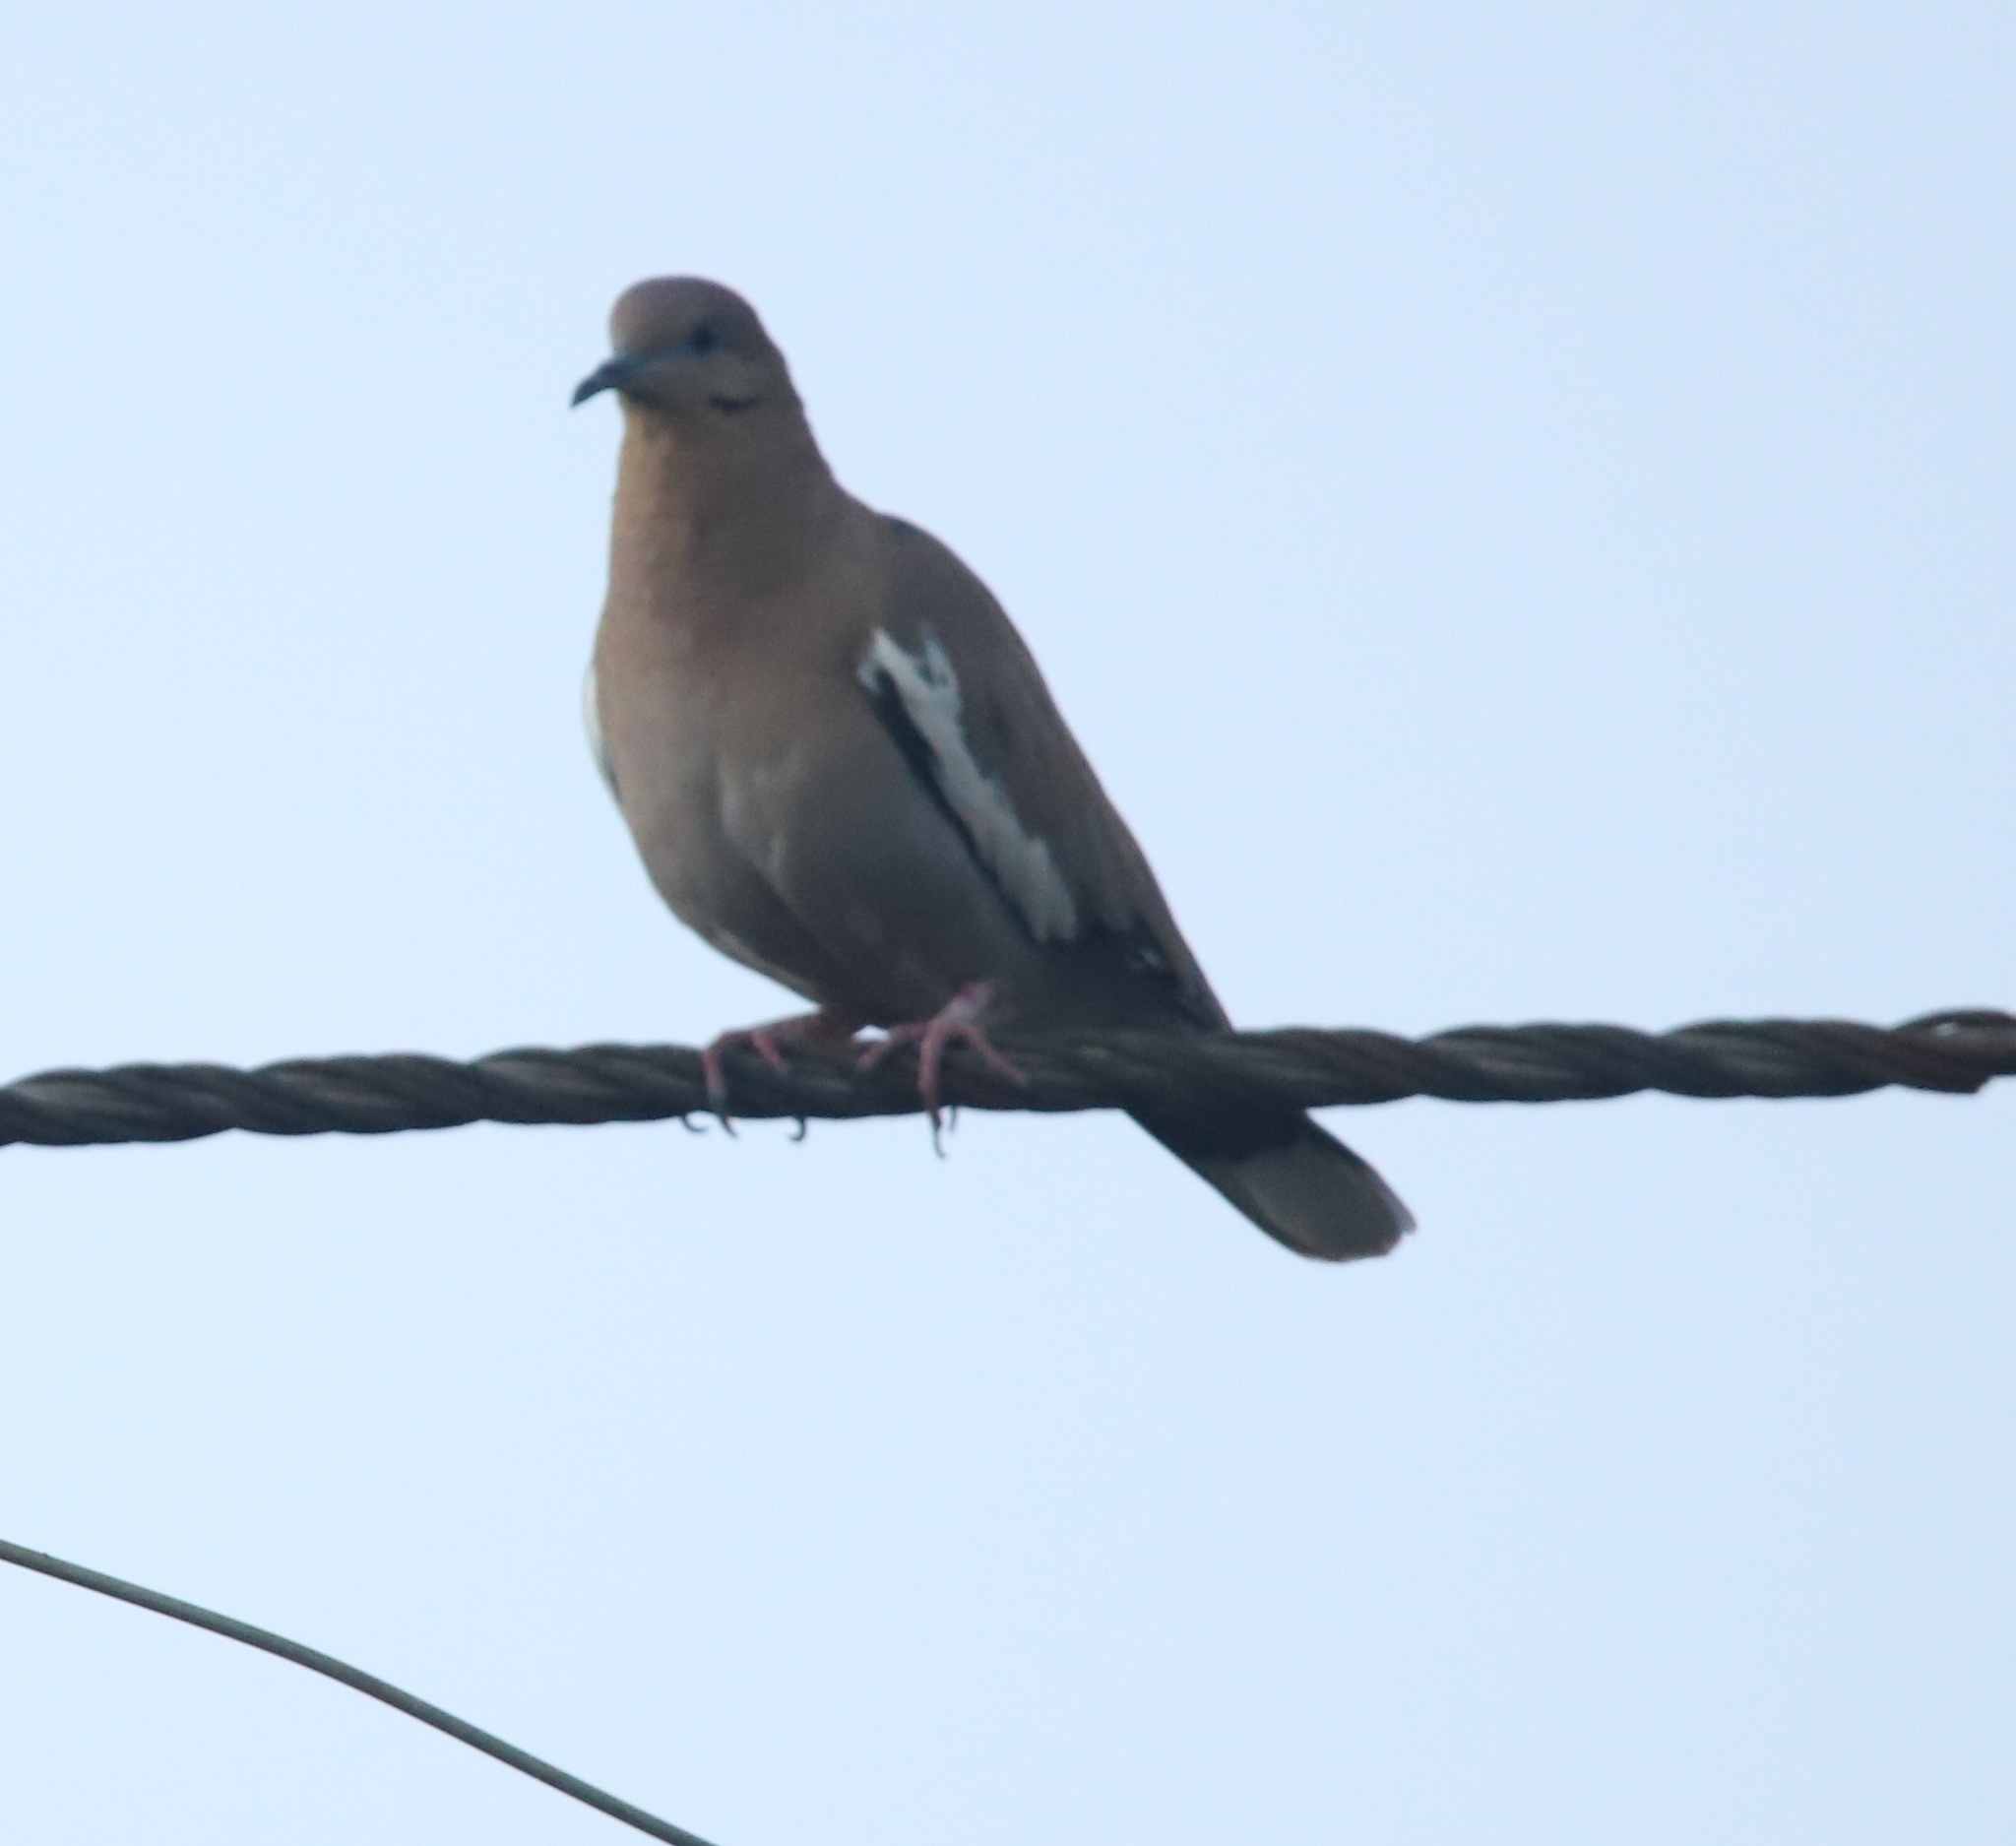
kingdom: Animalia
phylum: Chordata
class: Aves
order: Columbiformes
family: Columbidae
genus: Zenaida
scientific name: Zenaida asiatica
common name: White-winged dove
